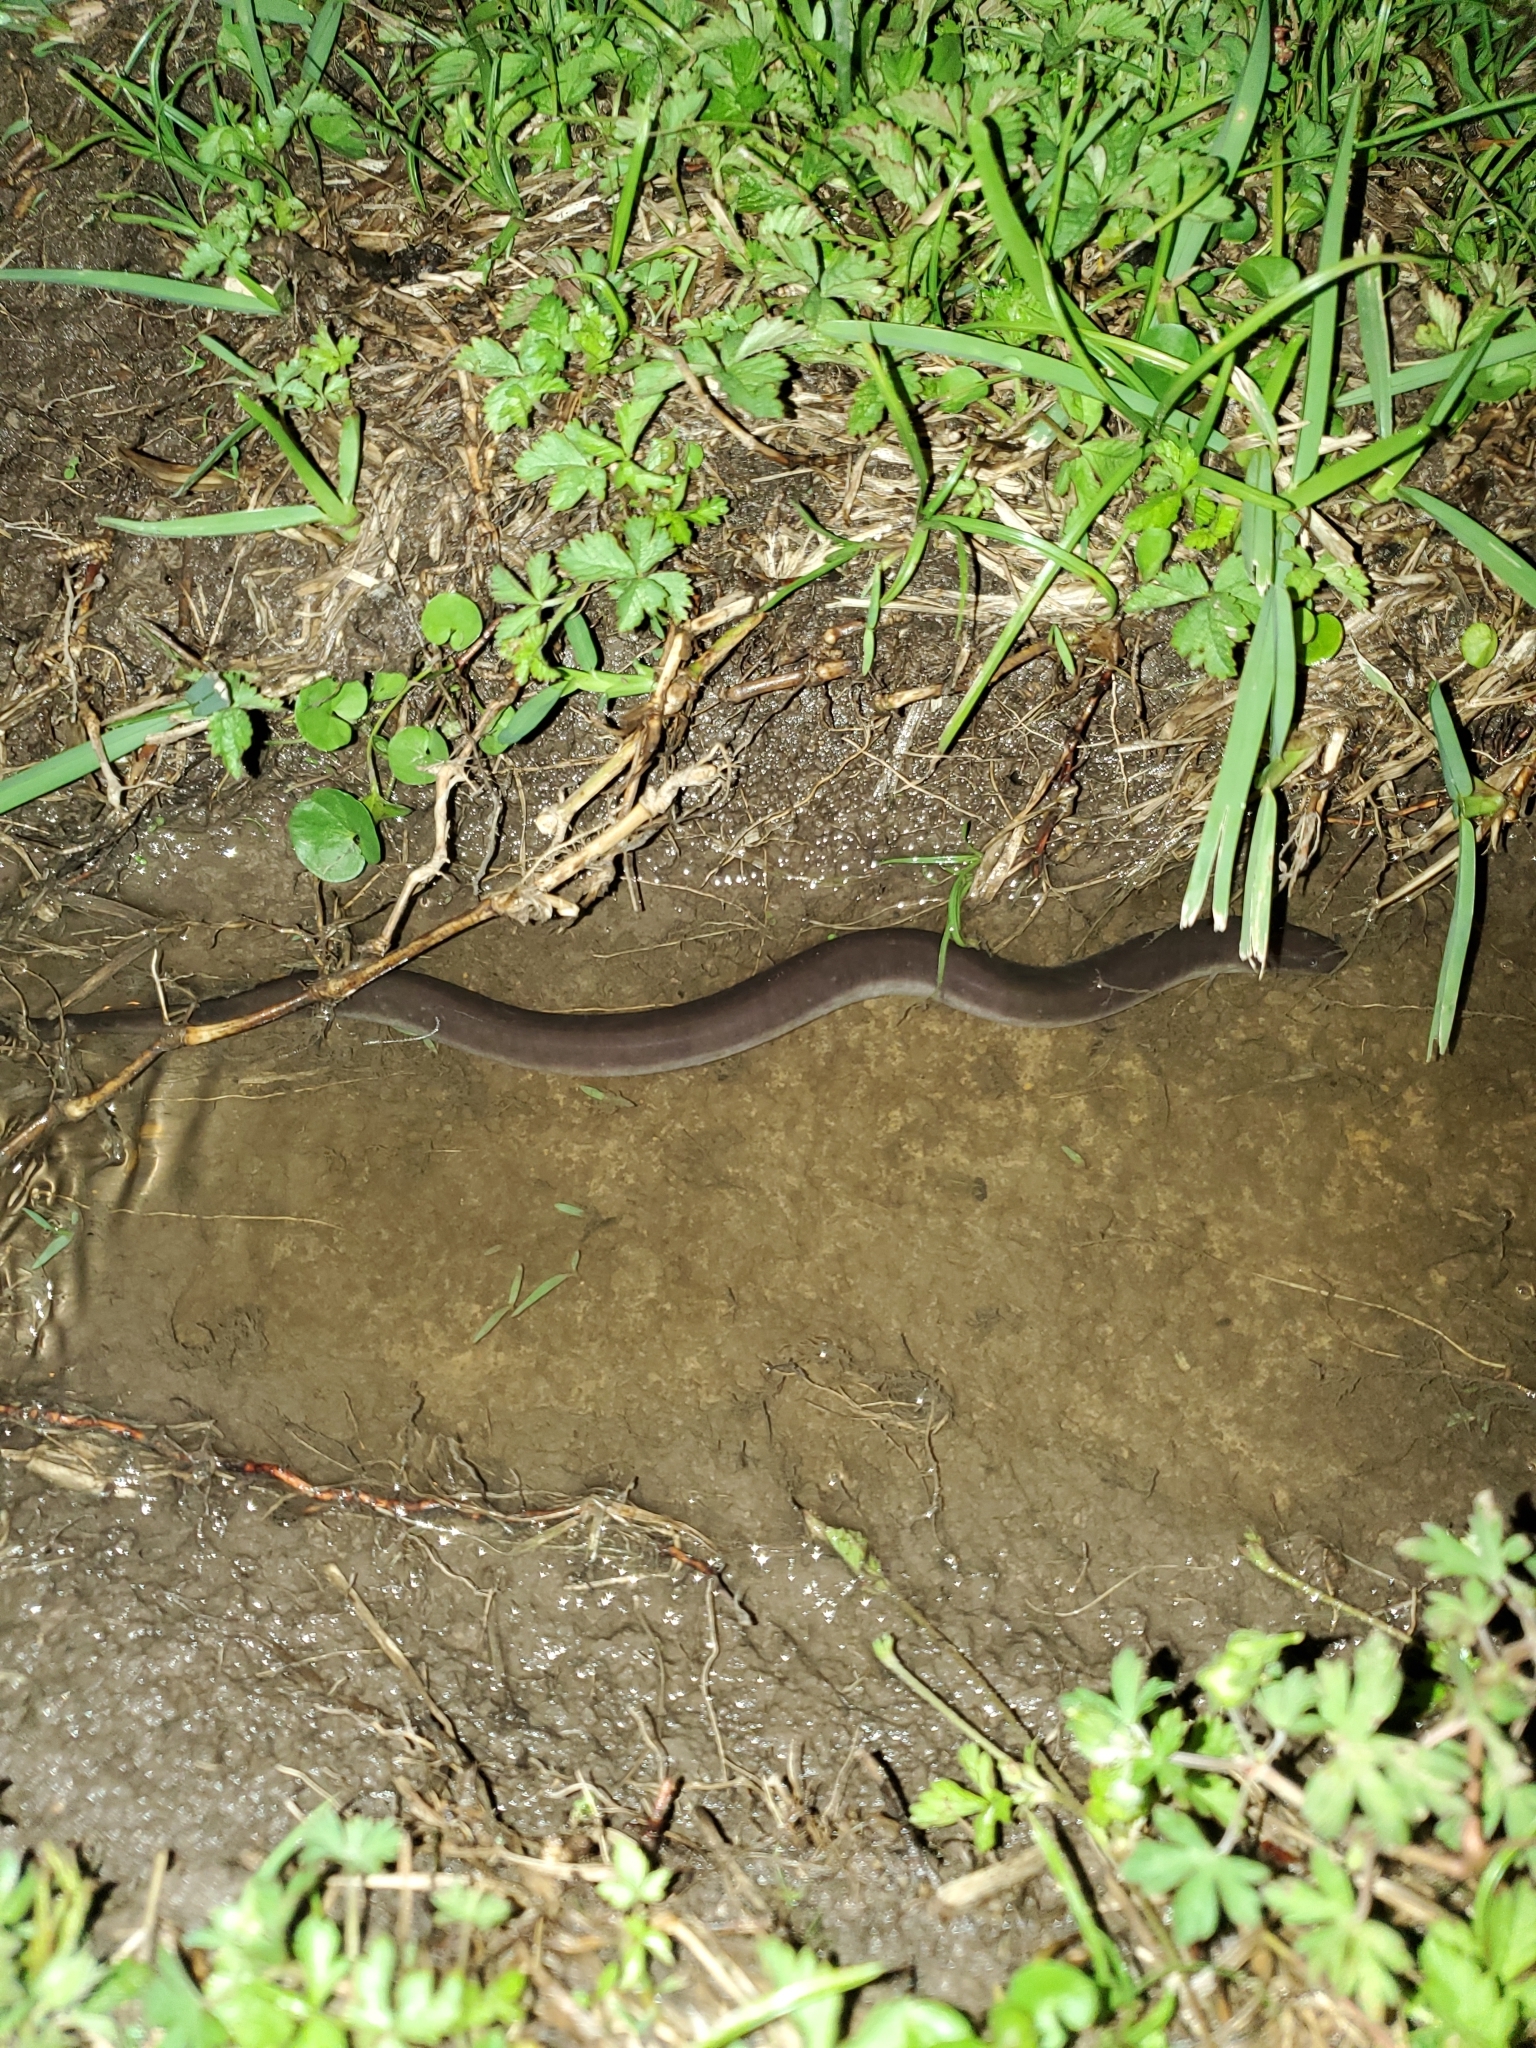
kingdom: Animalia
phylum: Chordata
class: Amphibia
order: Caudata
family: Amphiumidae
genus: Amphiuma
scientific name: Amphiuma tridactylum
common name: Three-toed amphiuma
